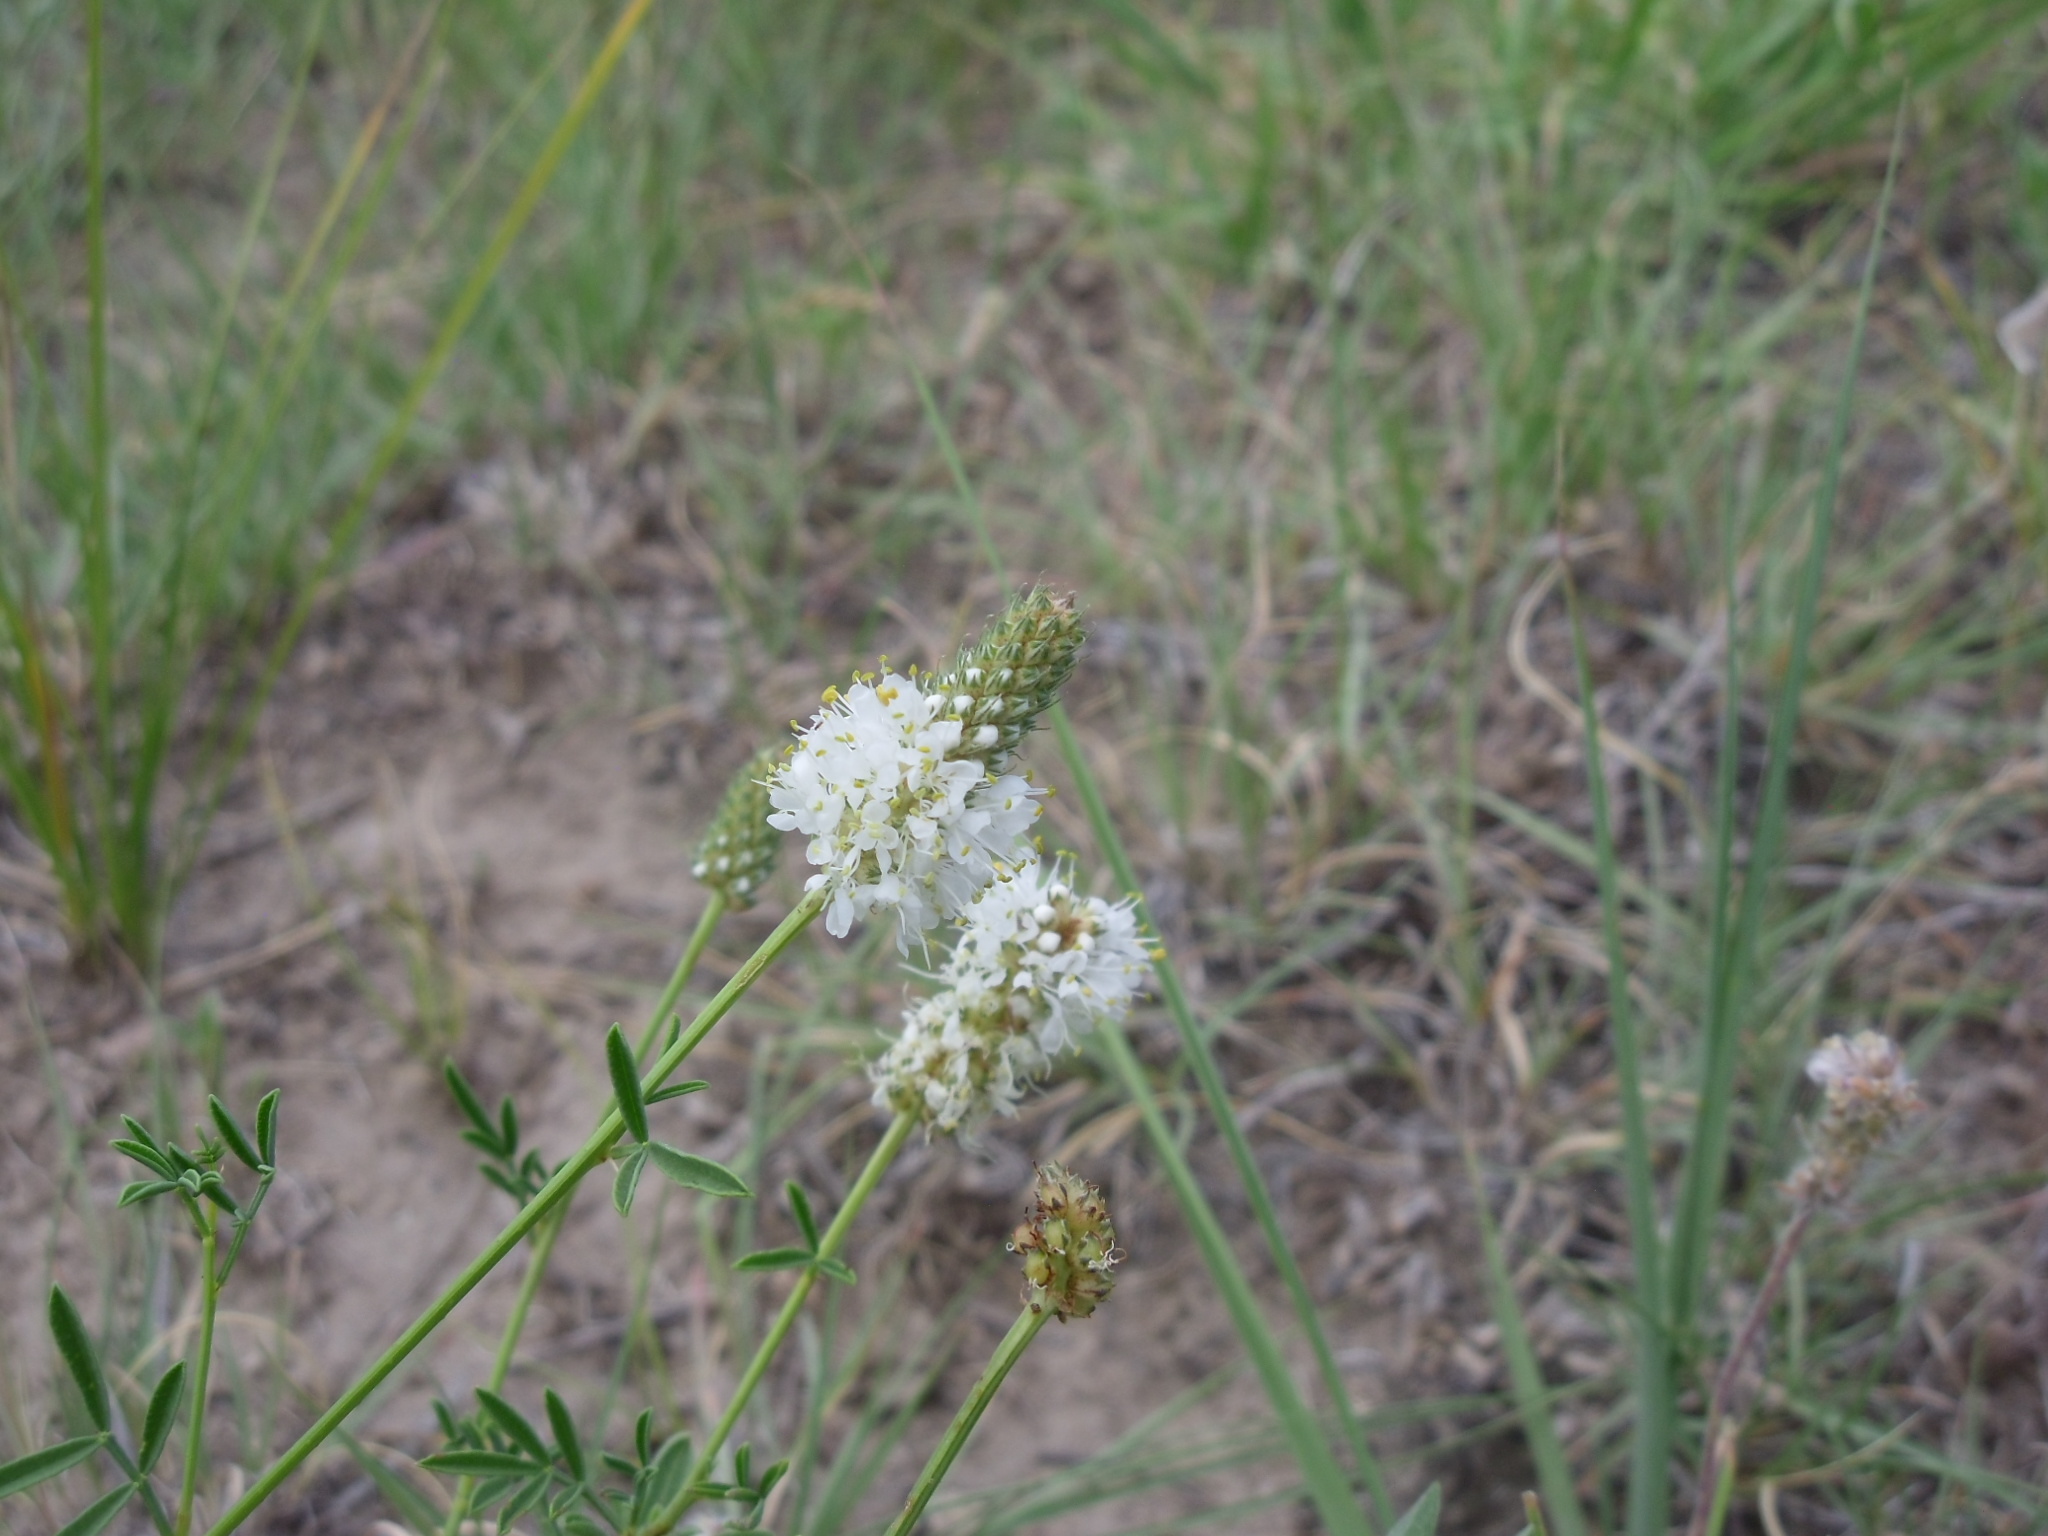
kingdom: Plantae
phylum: Tracheophyta
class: Magnoliopsida
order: Fabales
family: Fabaceae
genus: Dalea
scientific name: Dalea candida
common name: White prairie-clover
